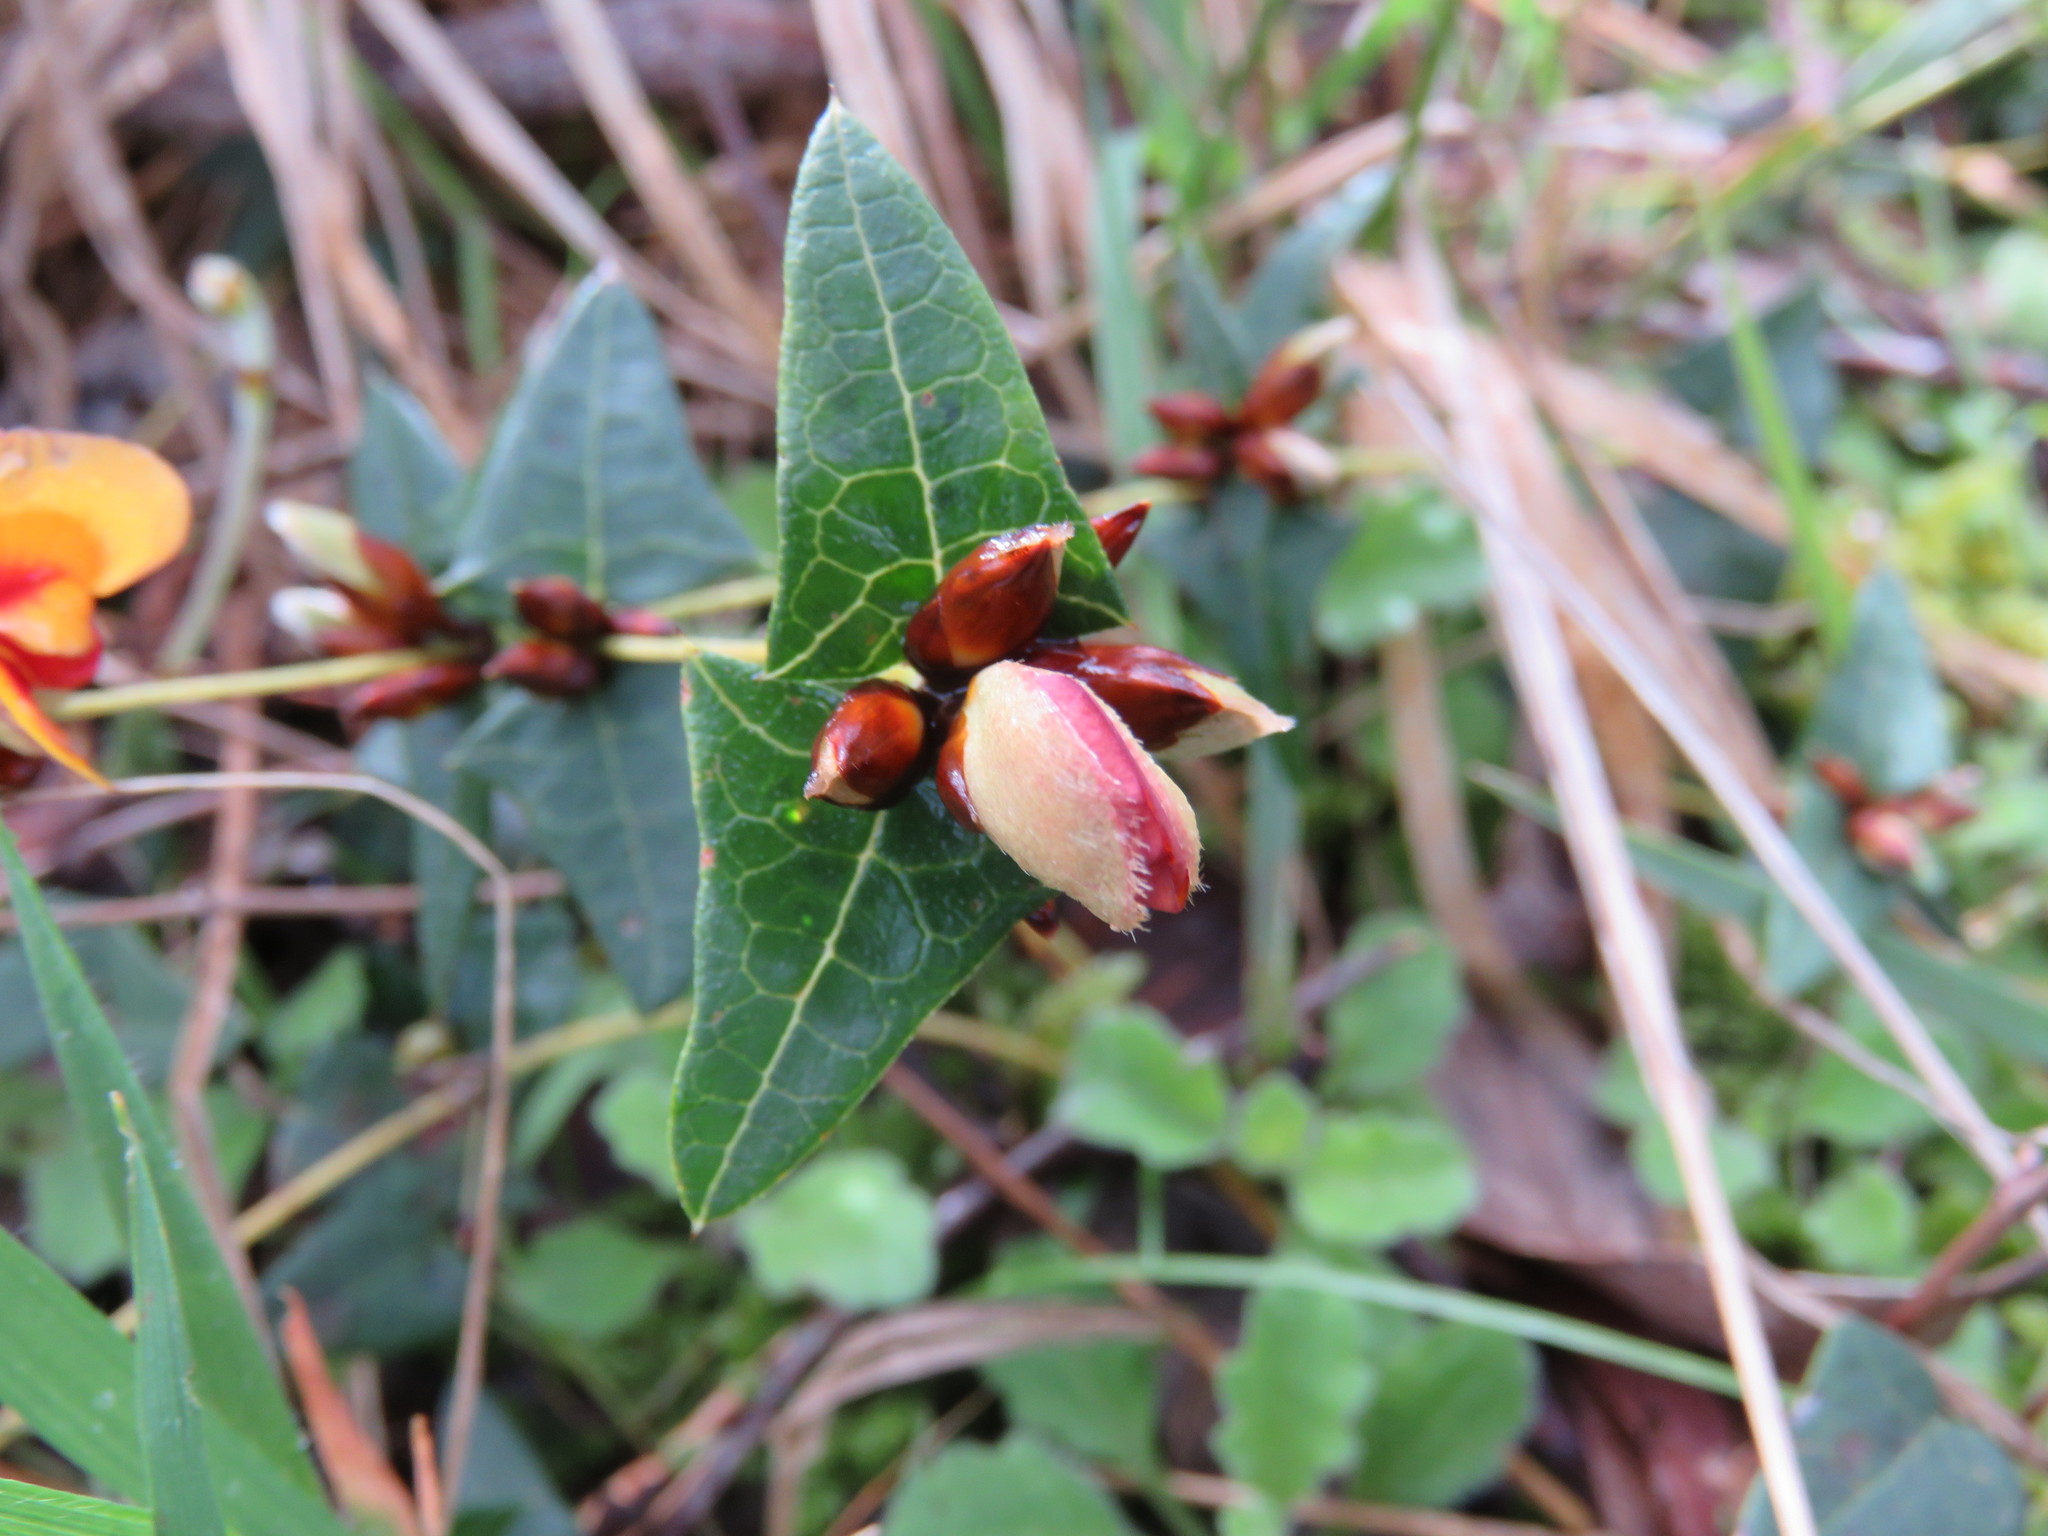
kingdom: Plantae
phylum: Tracheophyta
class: Magnoliopsida
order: Fabales
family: Fabaceae
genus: Platylobium
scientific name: Platylobium obtusangulum
